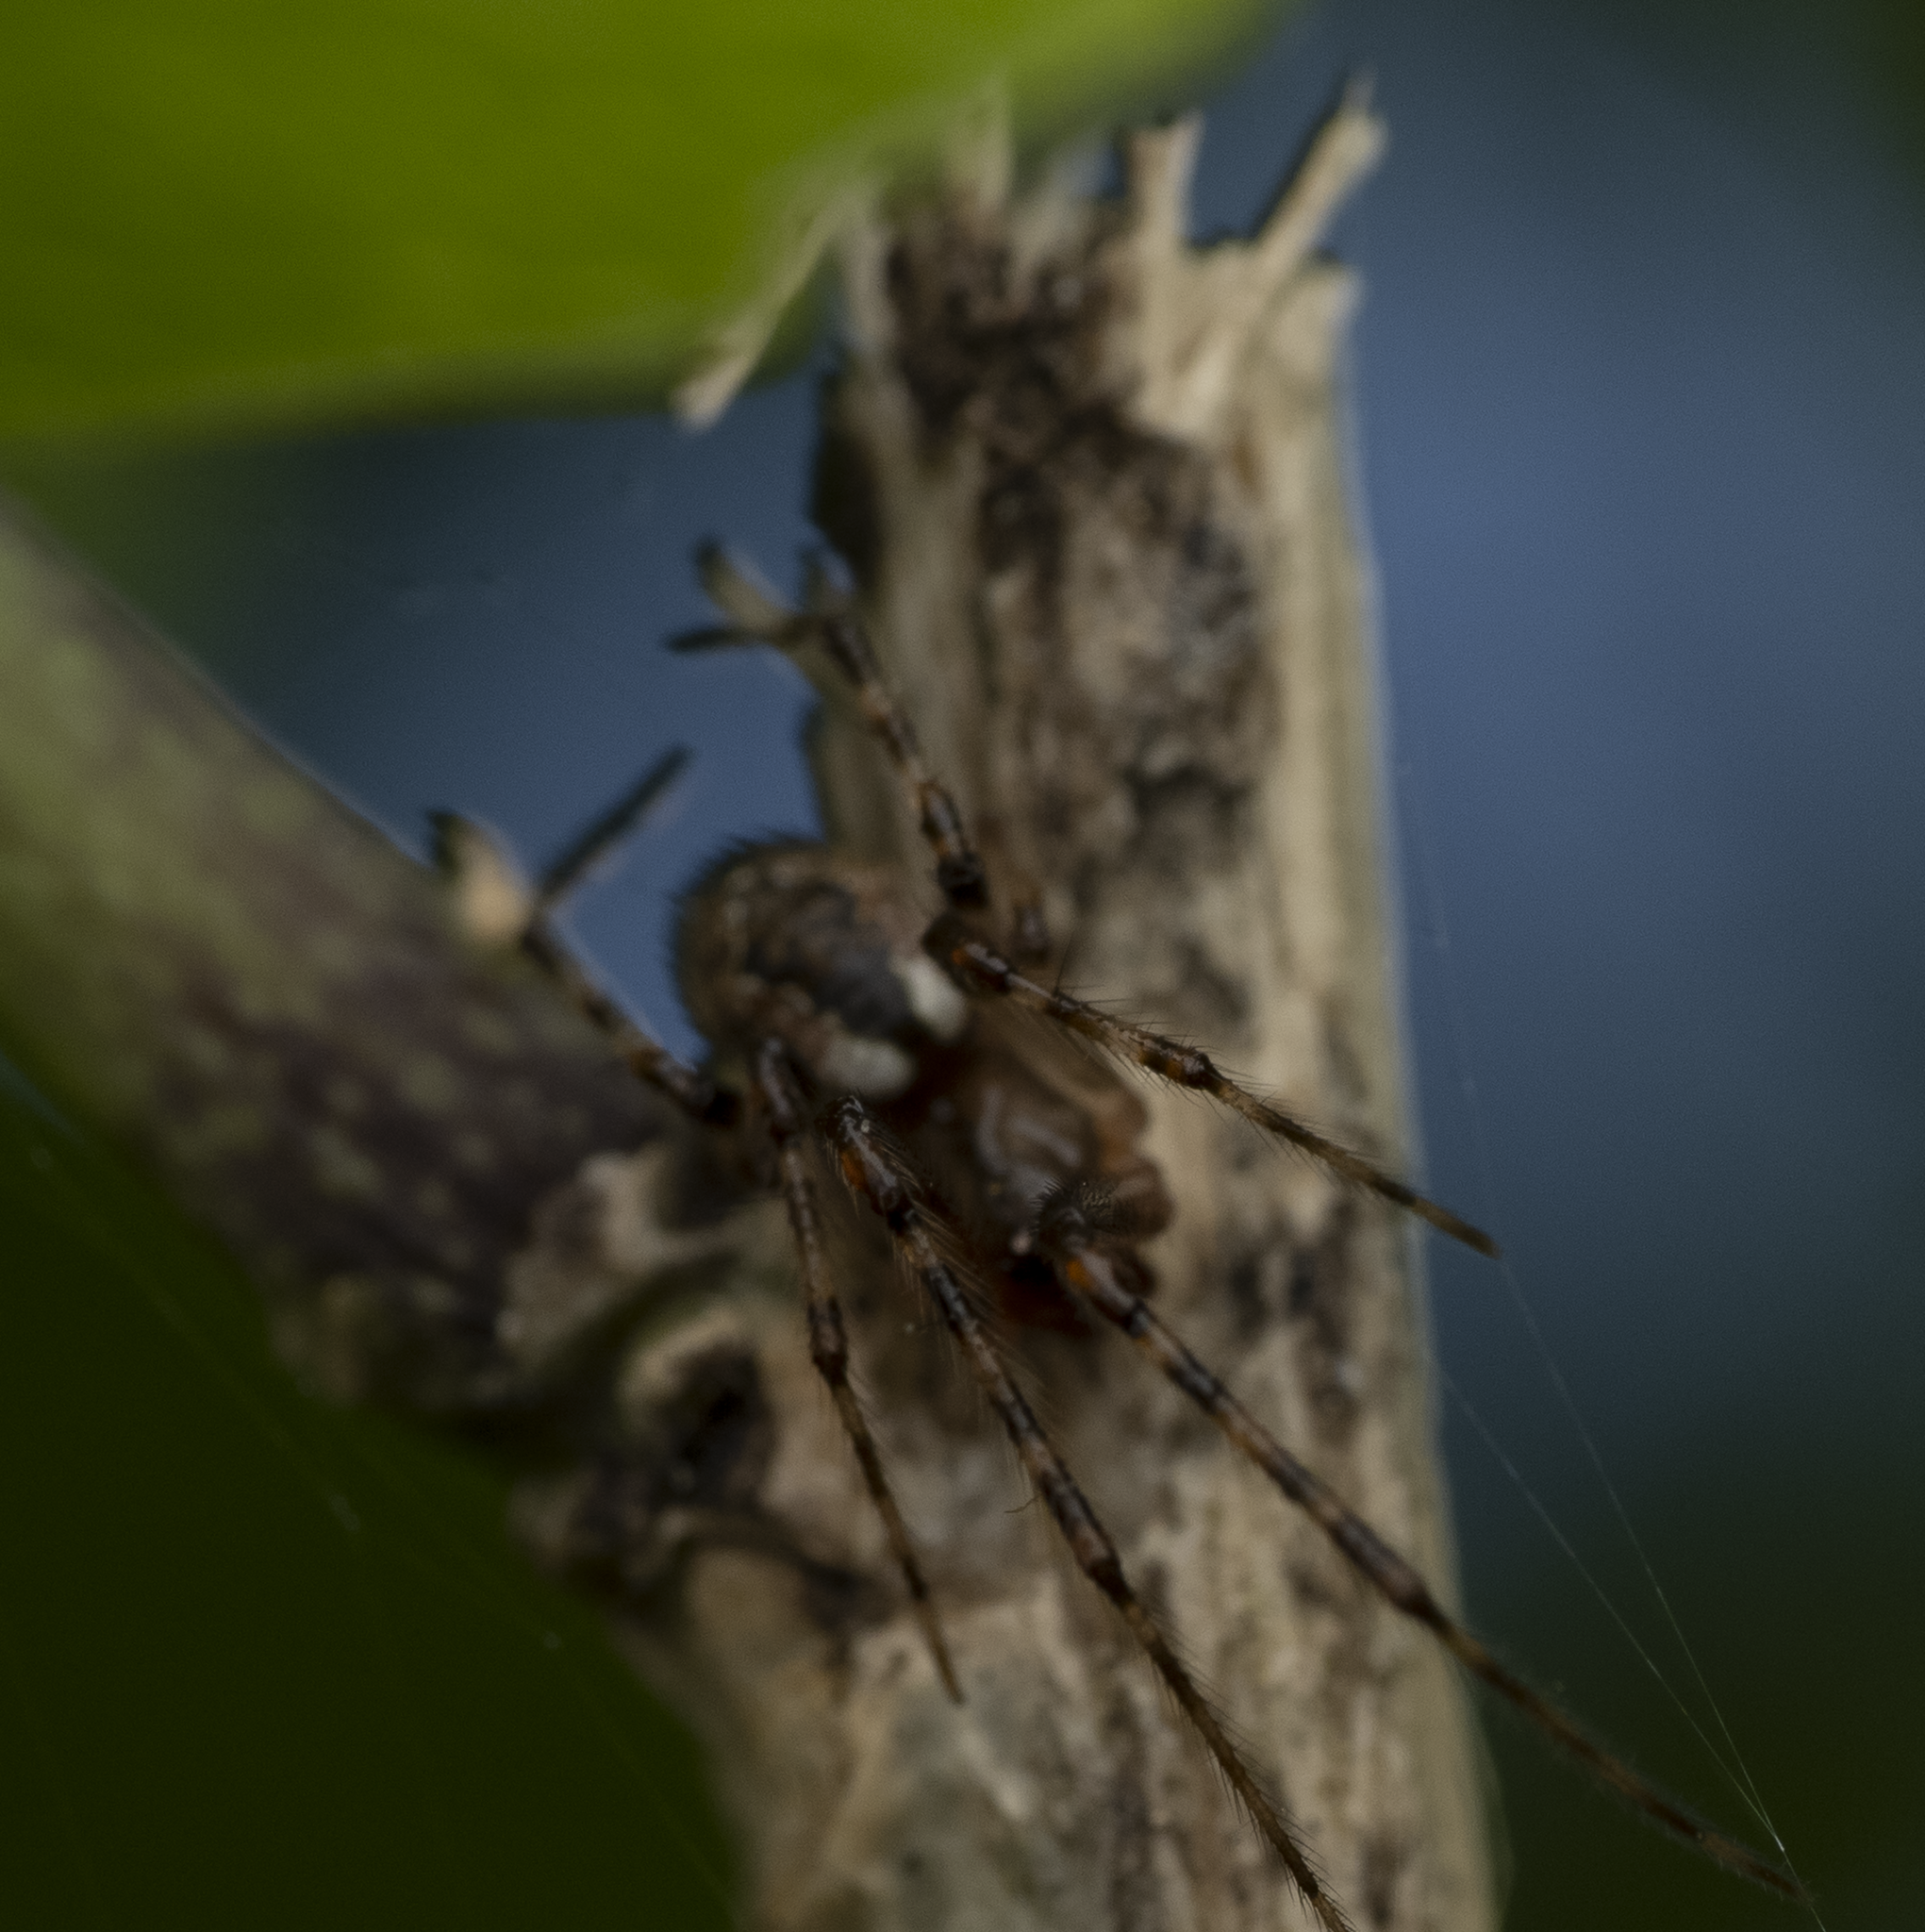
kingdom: Animalia
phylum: Arthropoda
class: Arachnida
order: Araneae
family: Theridiidae
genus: Cryptachaea
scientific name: Cryptachaea veruculata
